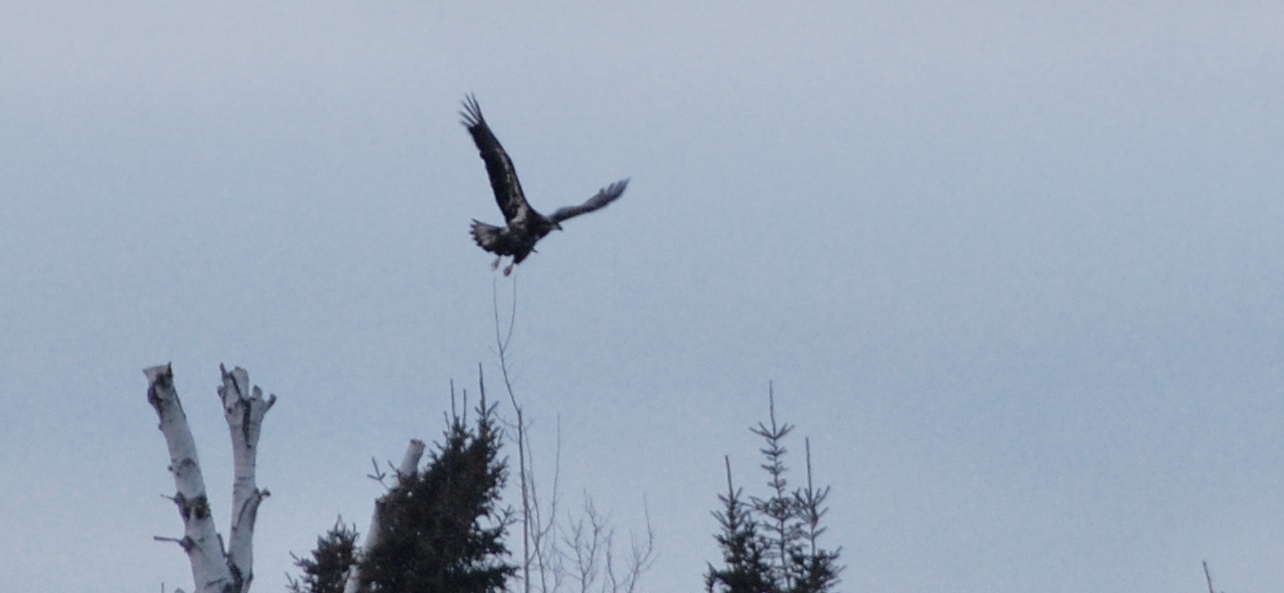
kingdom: Animalia
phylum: Chordata
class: Aves
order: Accipitriformes
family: Accipitridae
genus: Haliaeetus
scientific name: Haliaeetus leucocephalus
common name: Bald eagle
